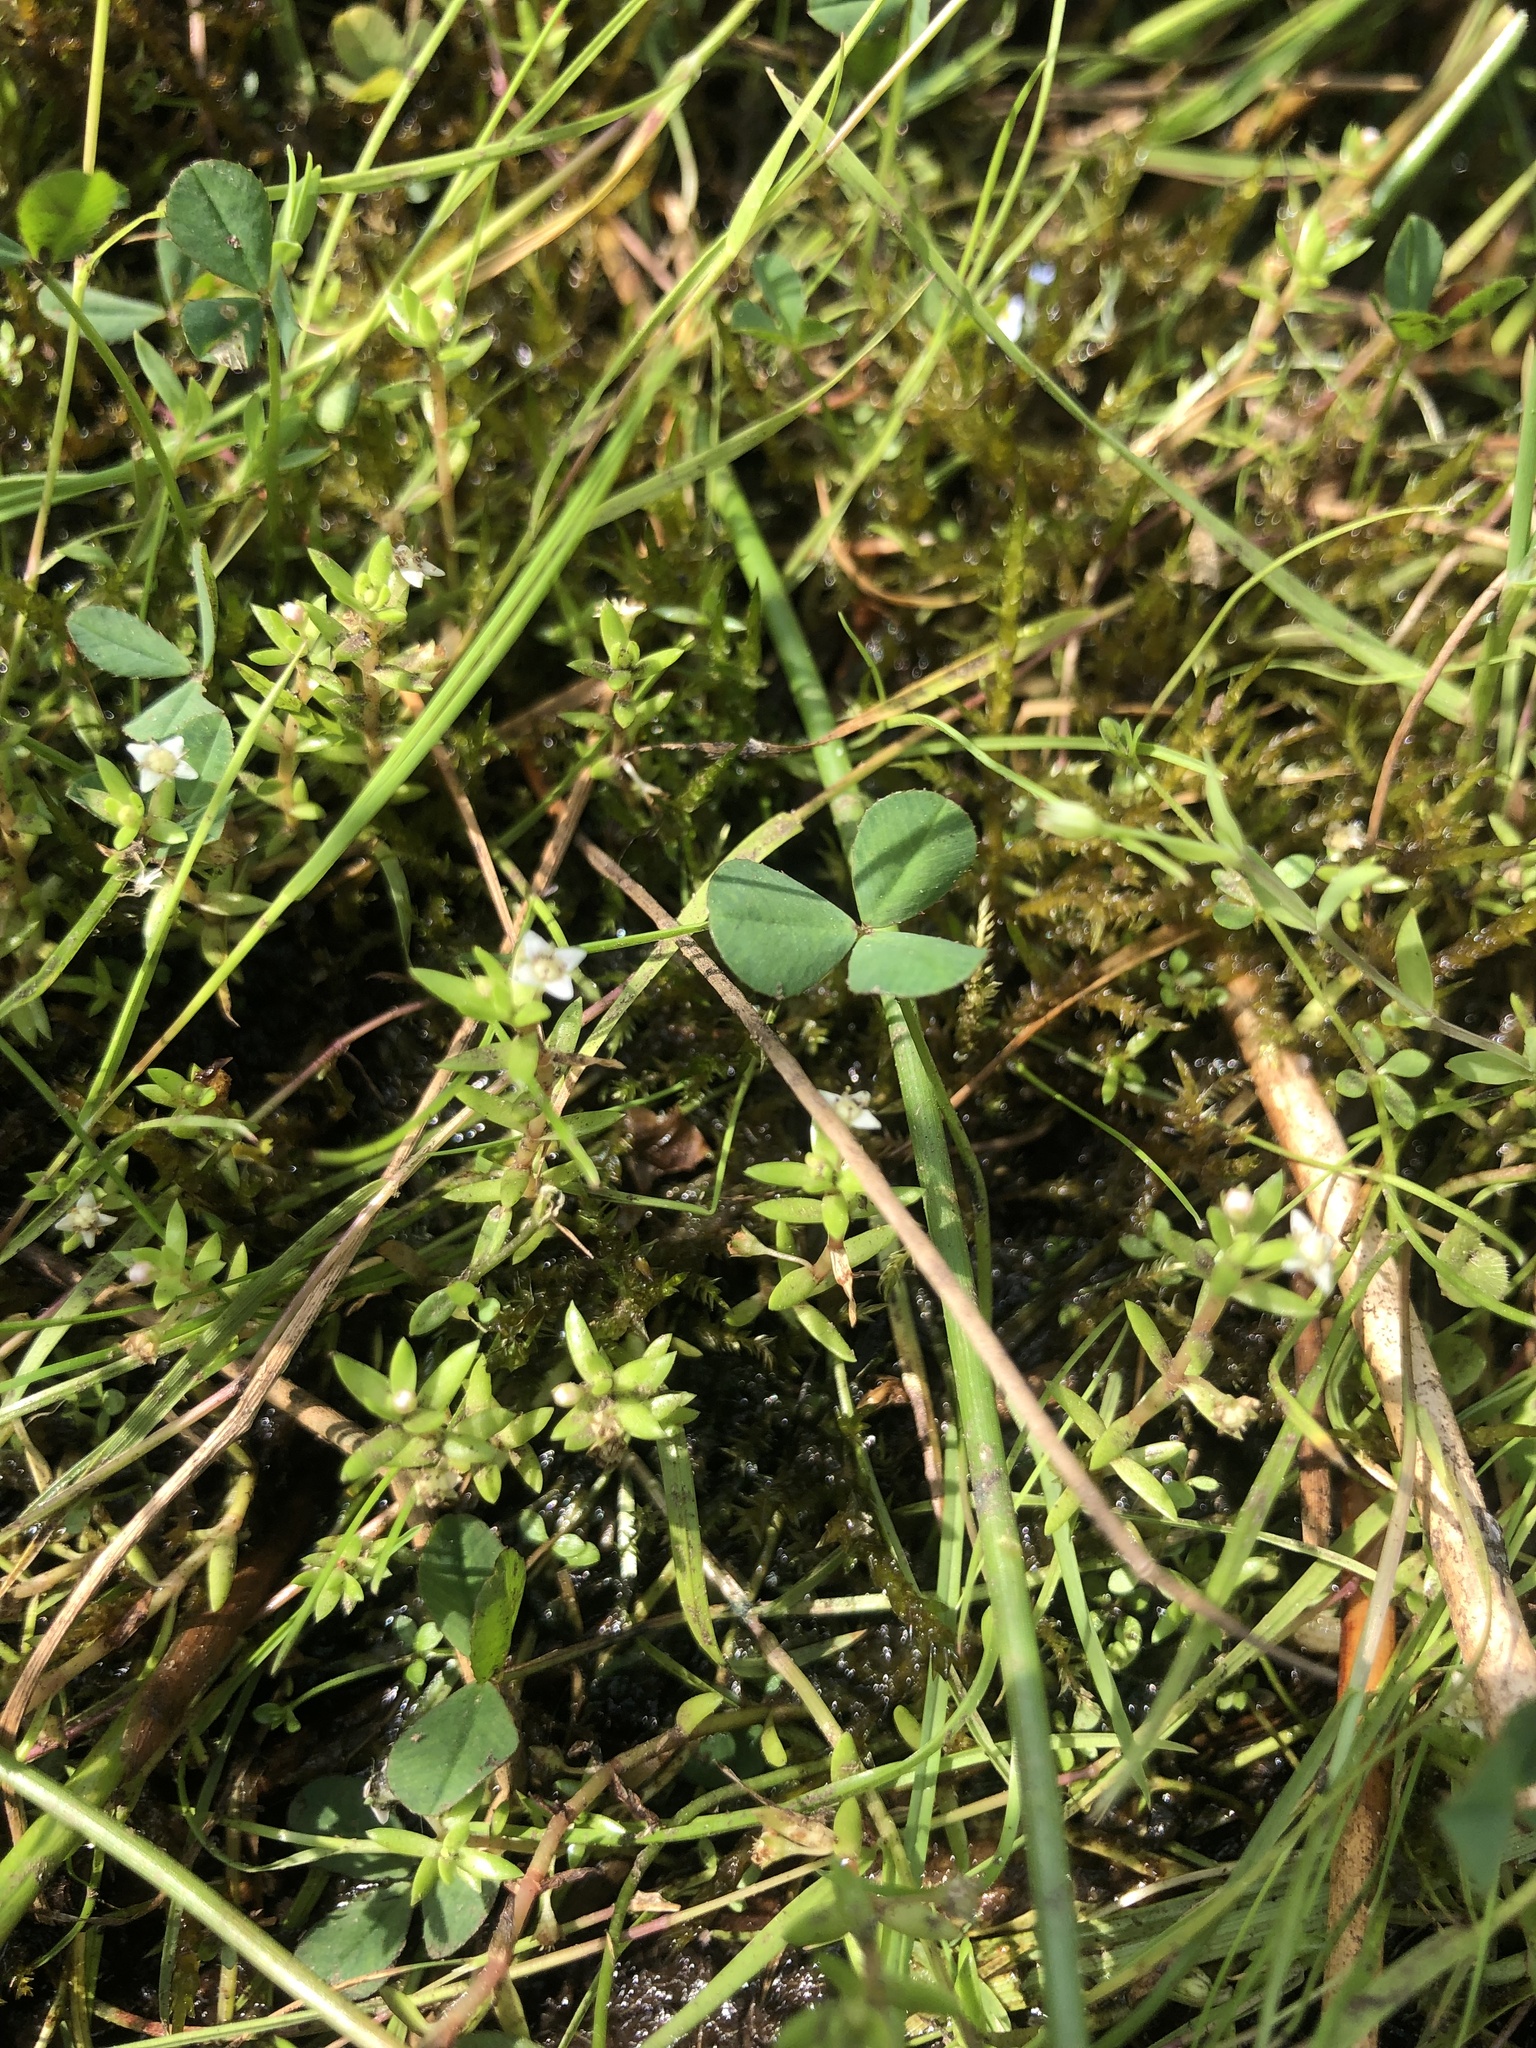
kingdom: Plantae
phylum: Tracheophyta
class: Magnoliopsida
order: Saxifragales
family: Crassulaceae
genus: Crassula
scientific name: Crassula helmsii
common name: New zealand pigmyweed
